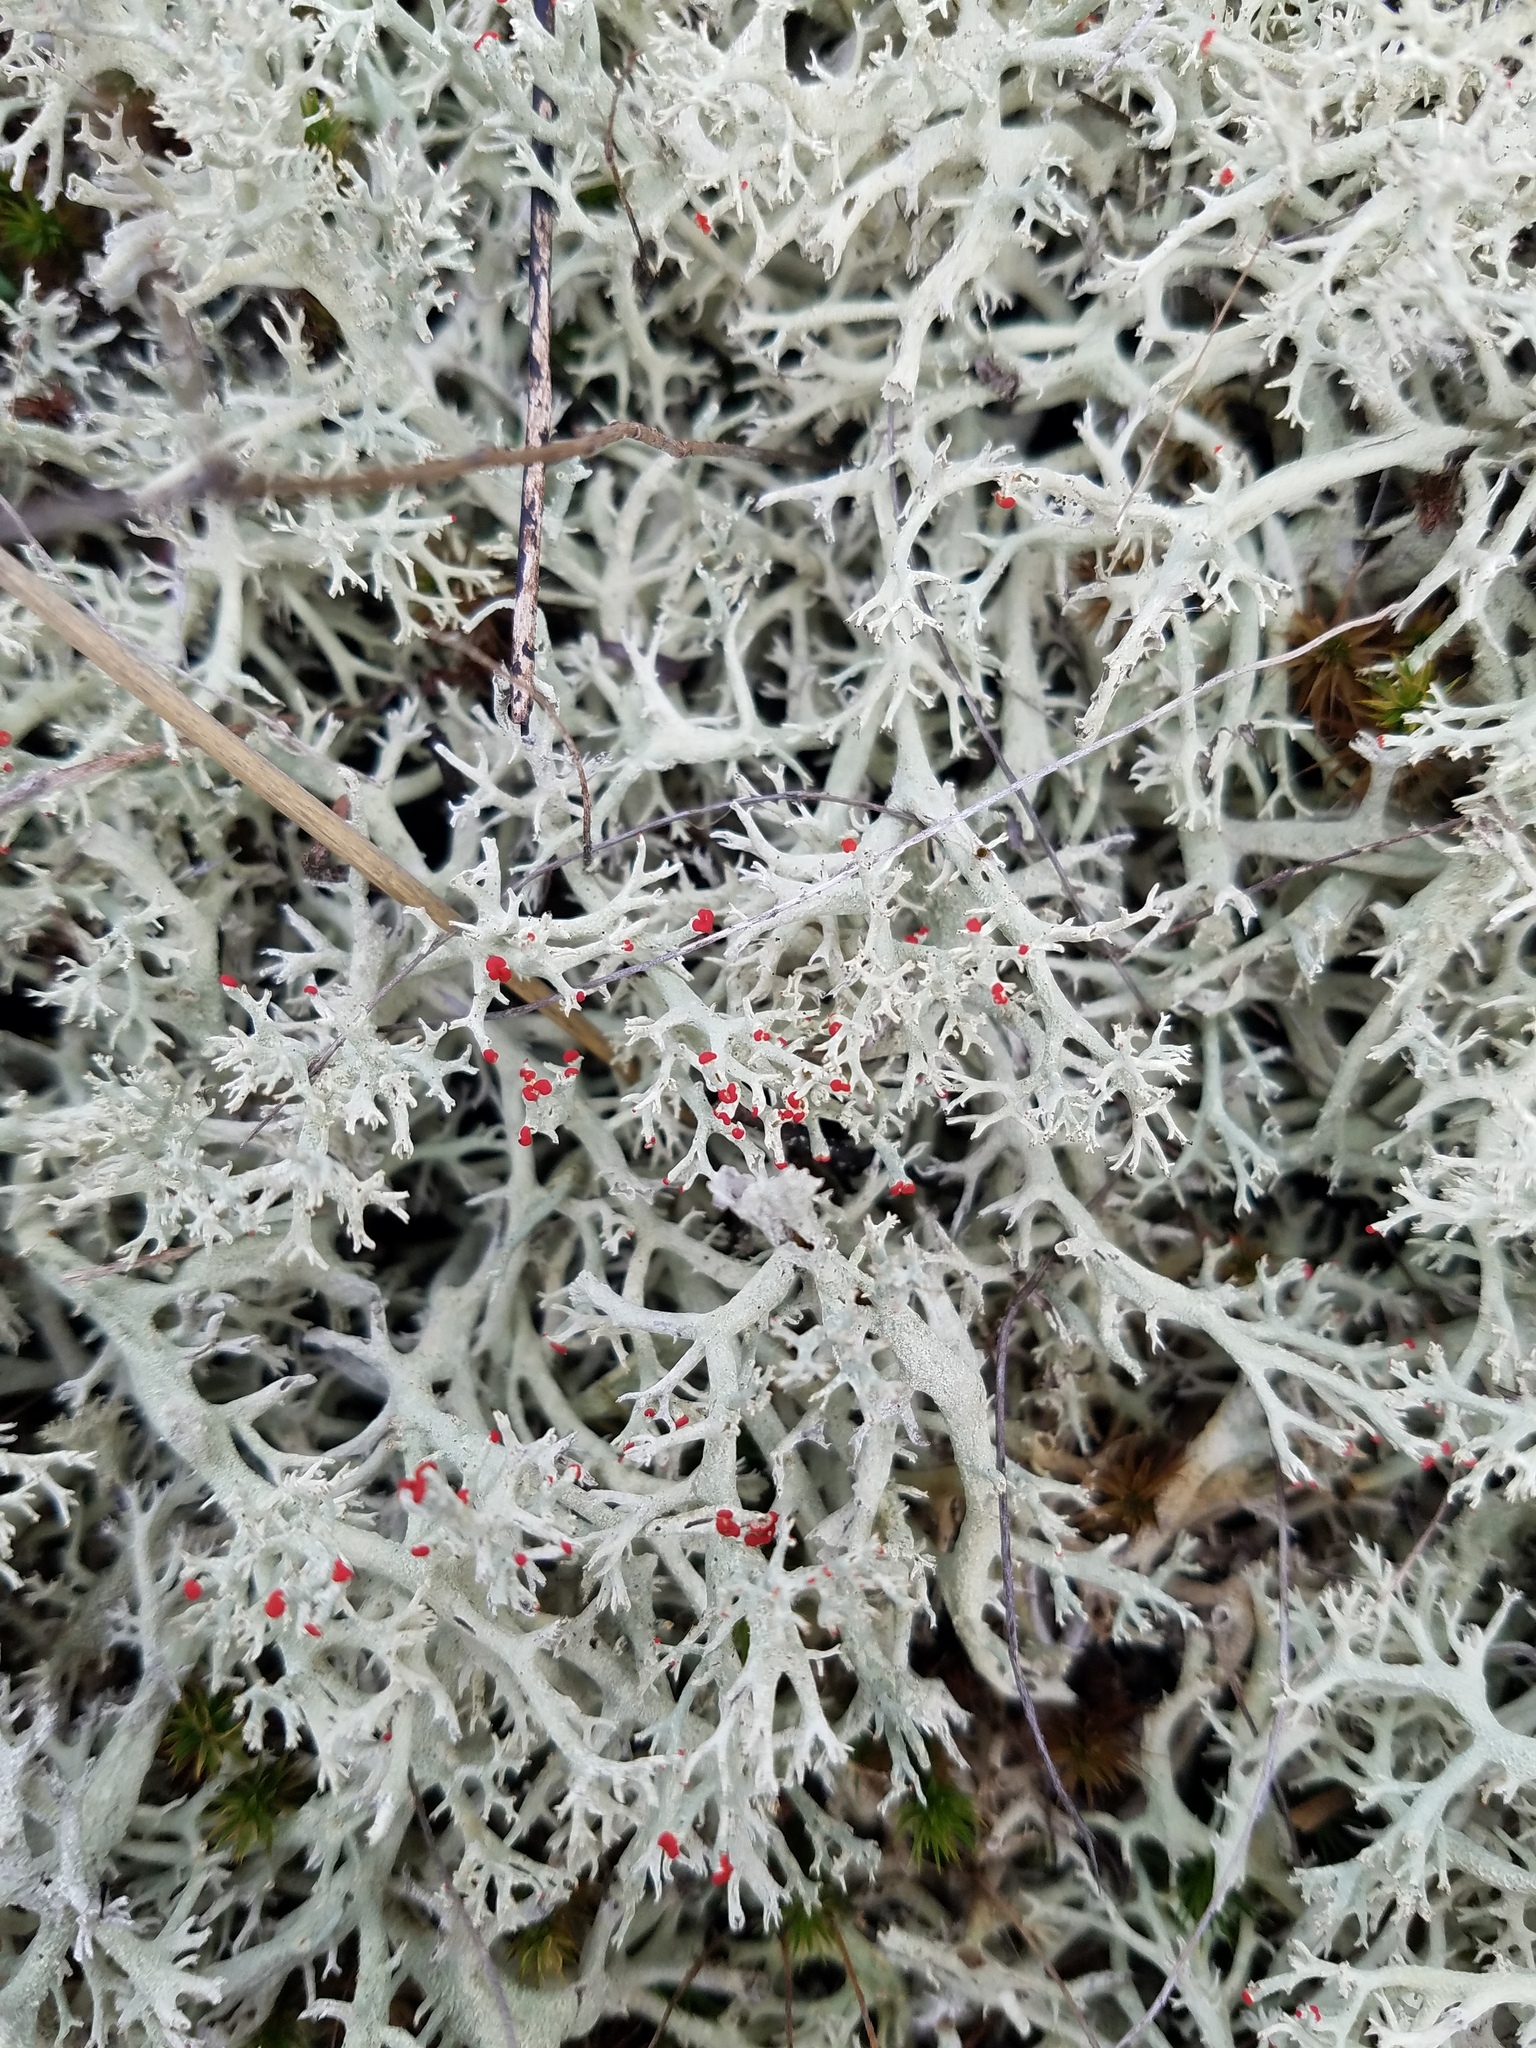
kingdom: Fungi
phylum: Ascomycota
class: Lecanoromycetes
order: Lecanorales
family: Cladoniaceae
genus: Cladonia
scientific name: Cladonia leporina
